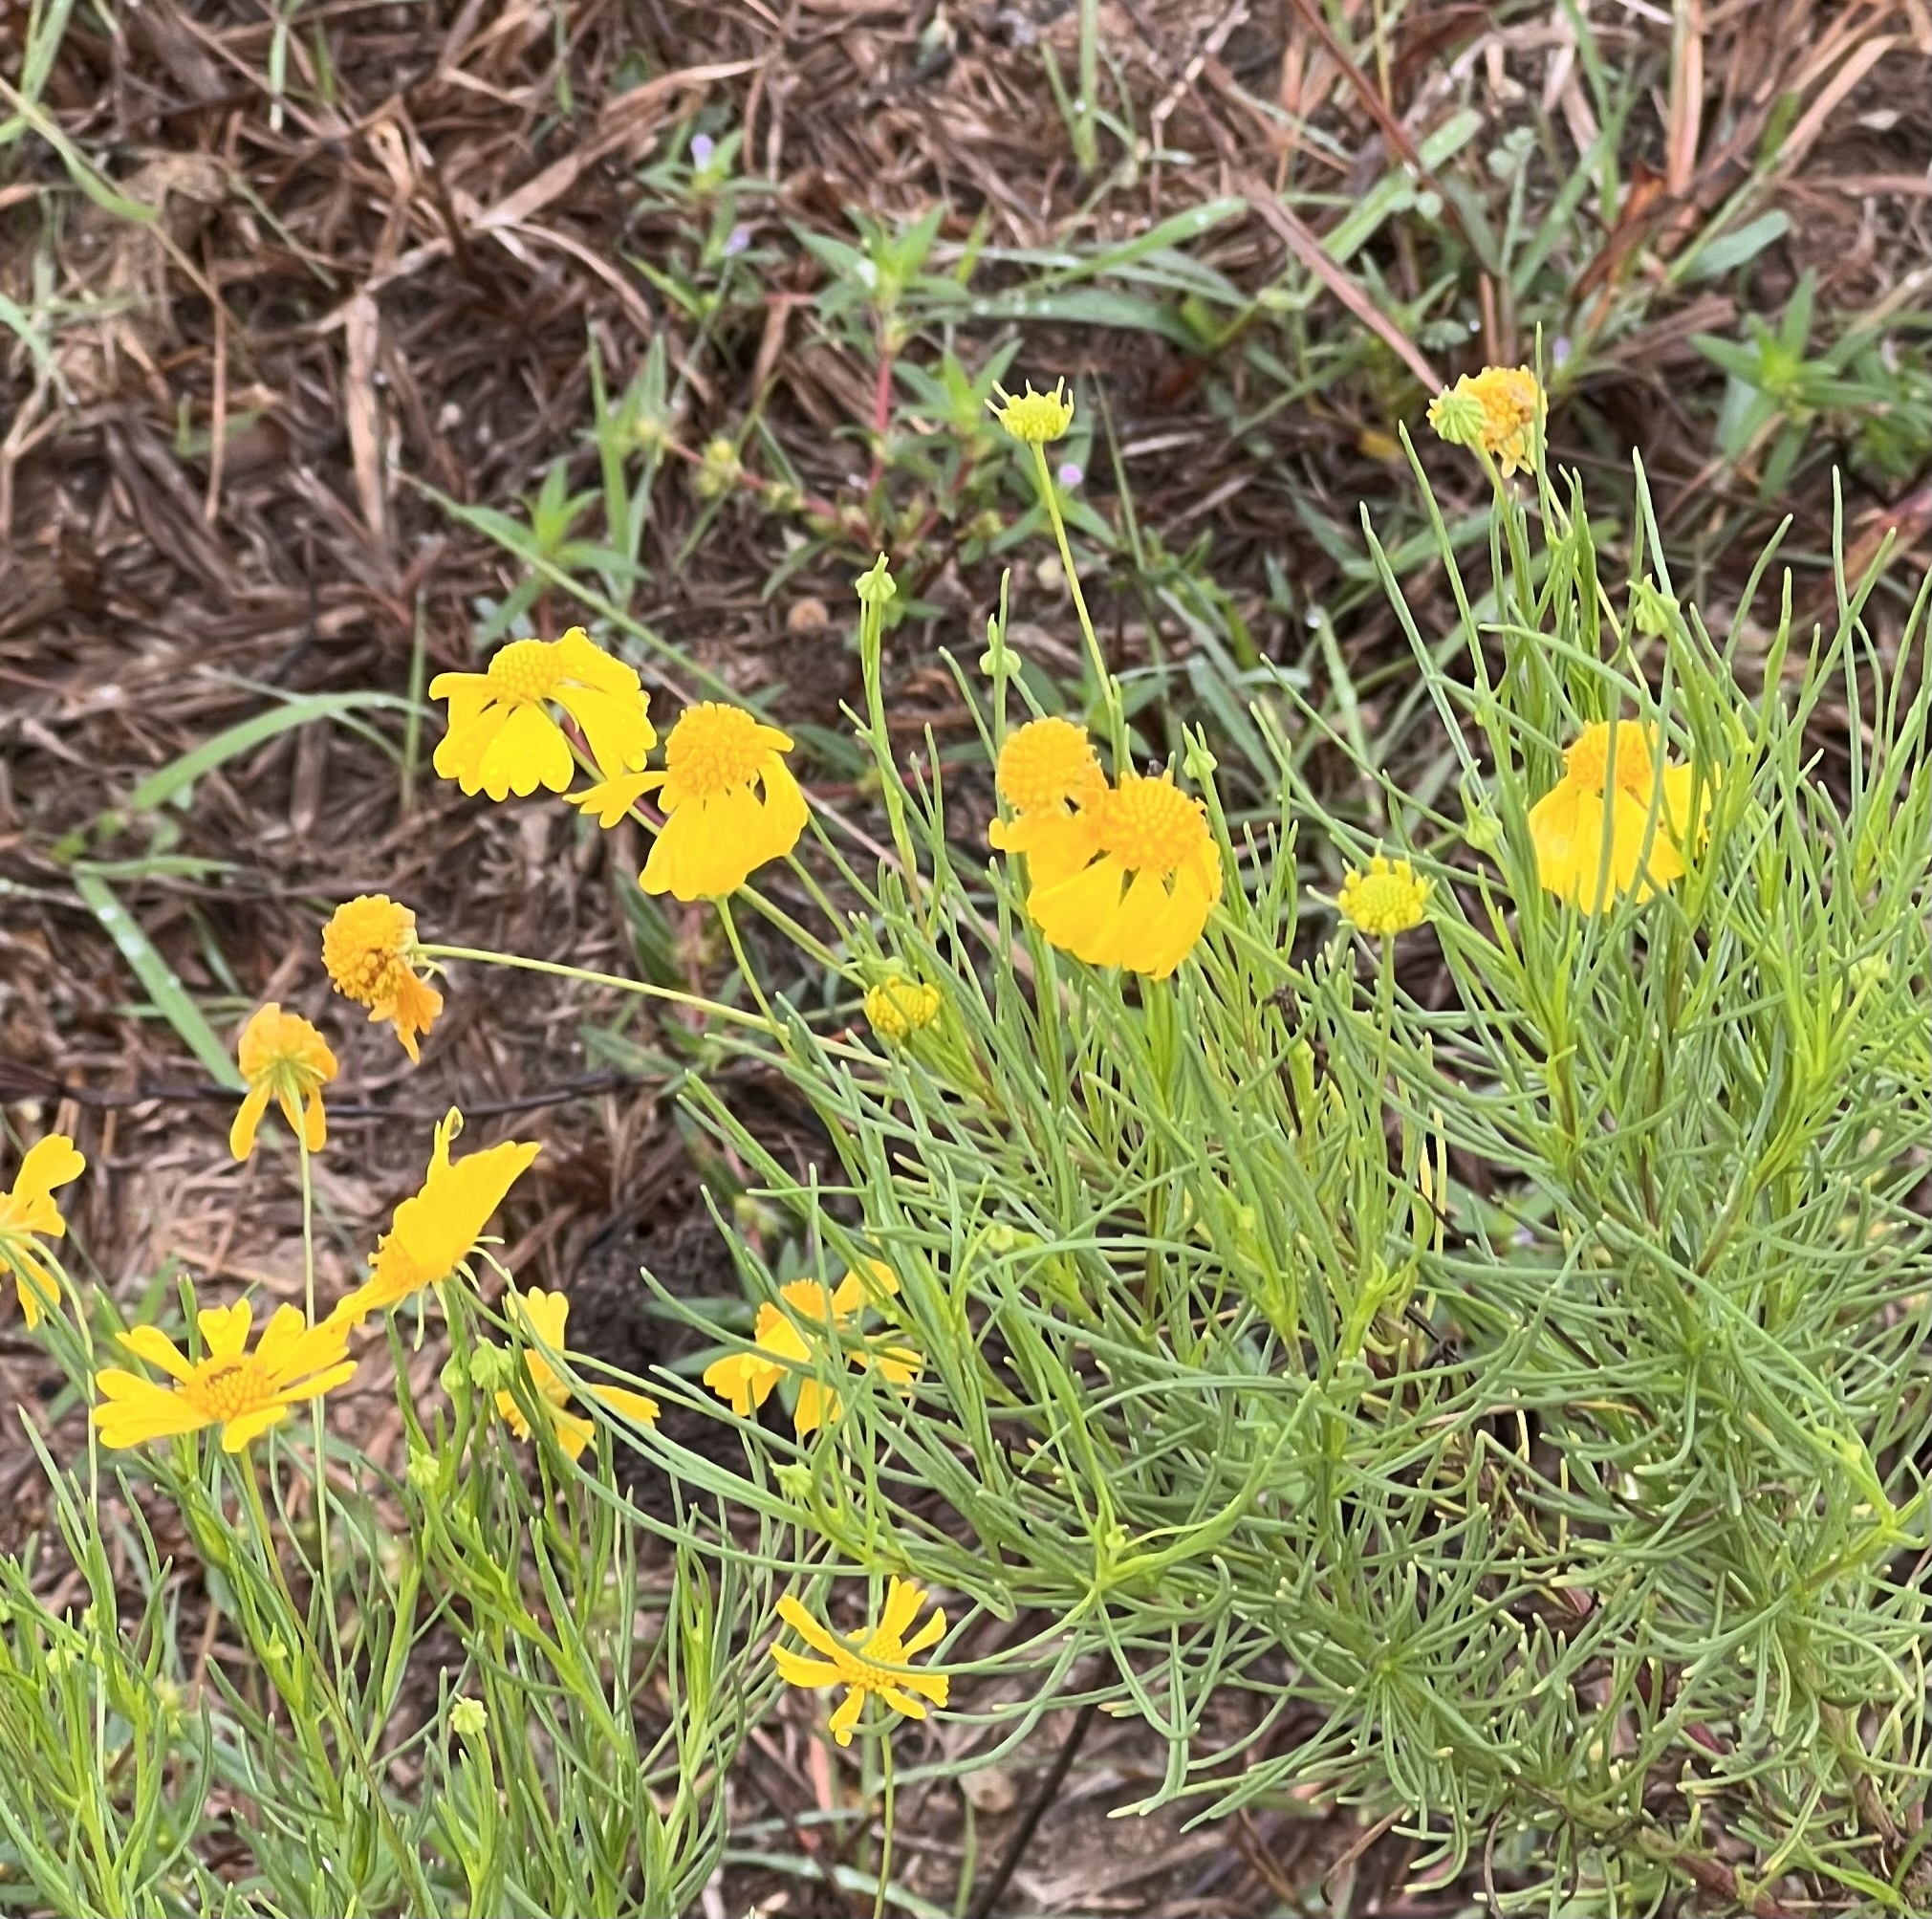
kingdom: Plantae
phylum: Tracheophyta
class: Magnoliopsida
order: Asterales
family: Asteraceae
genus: Helenium
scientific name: Helenium amarum
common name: Bitter sneezeweed
